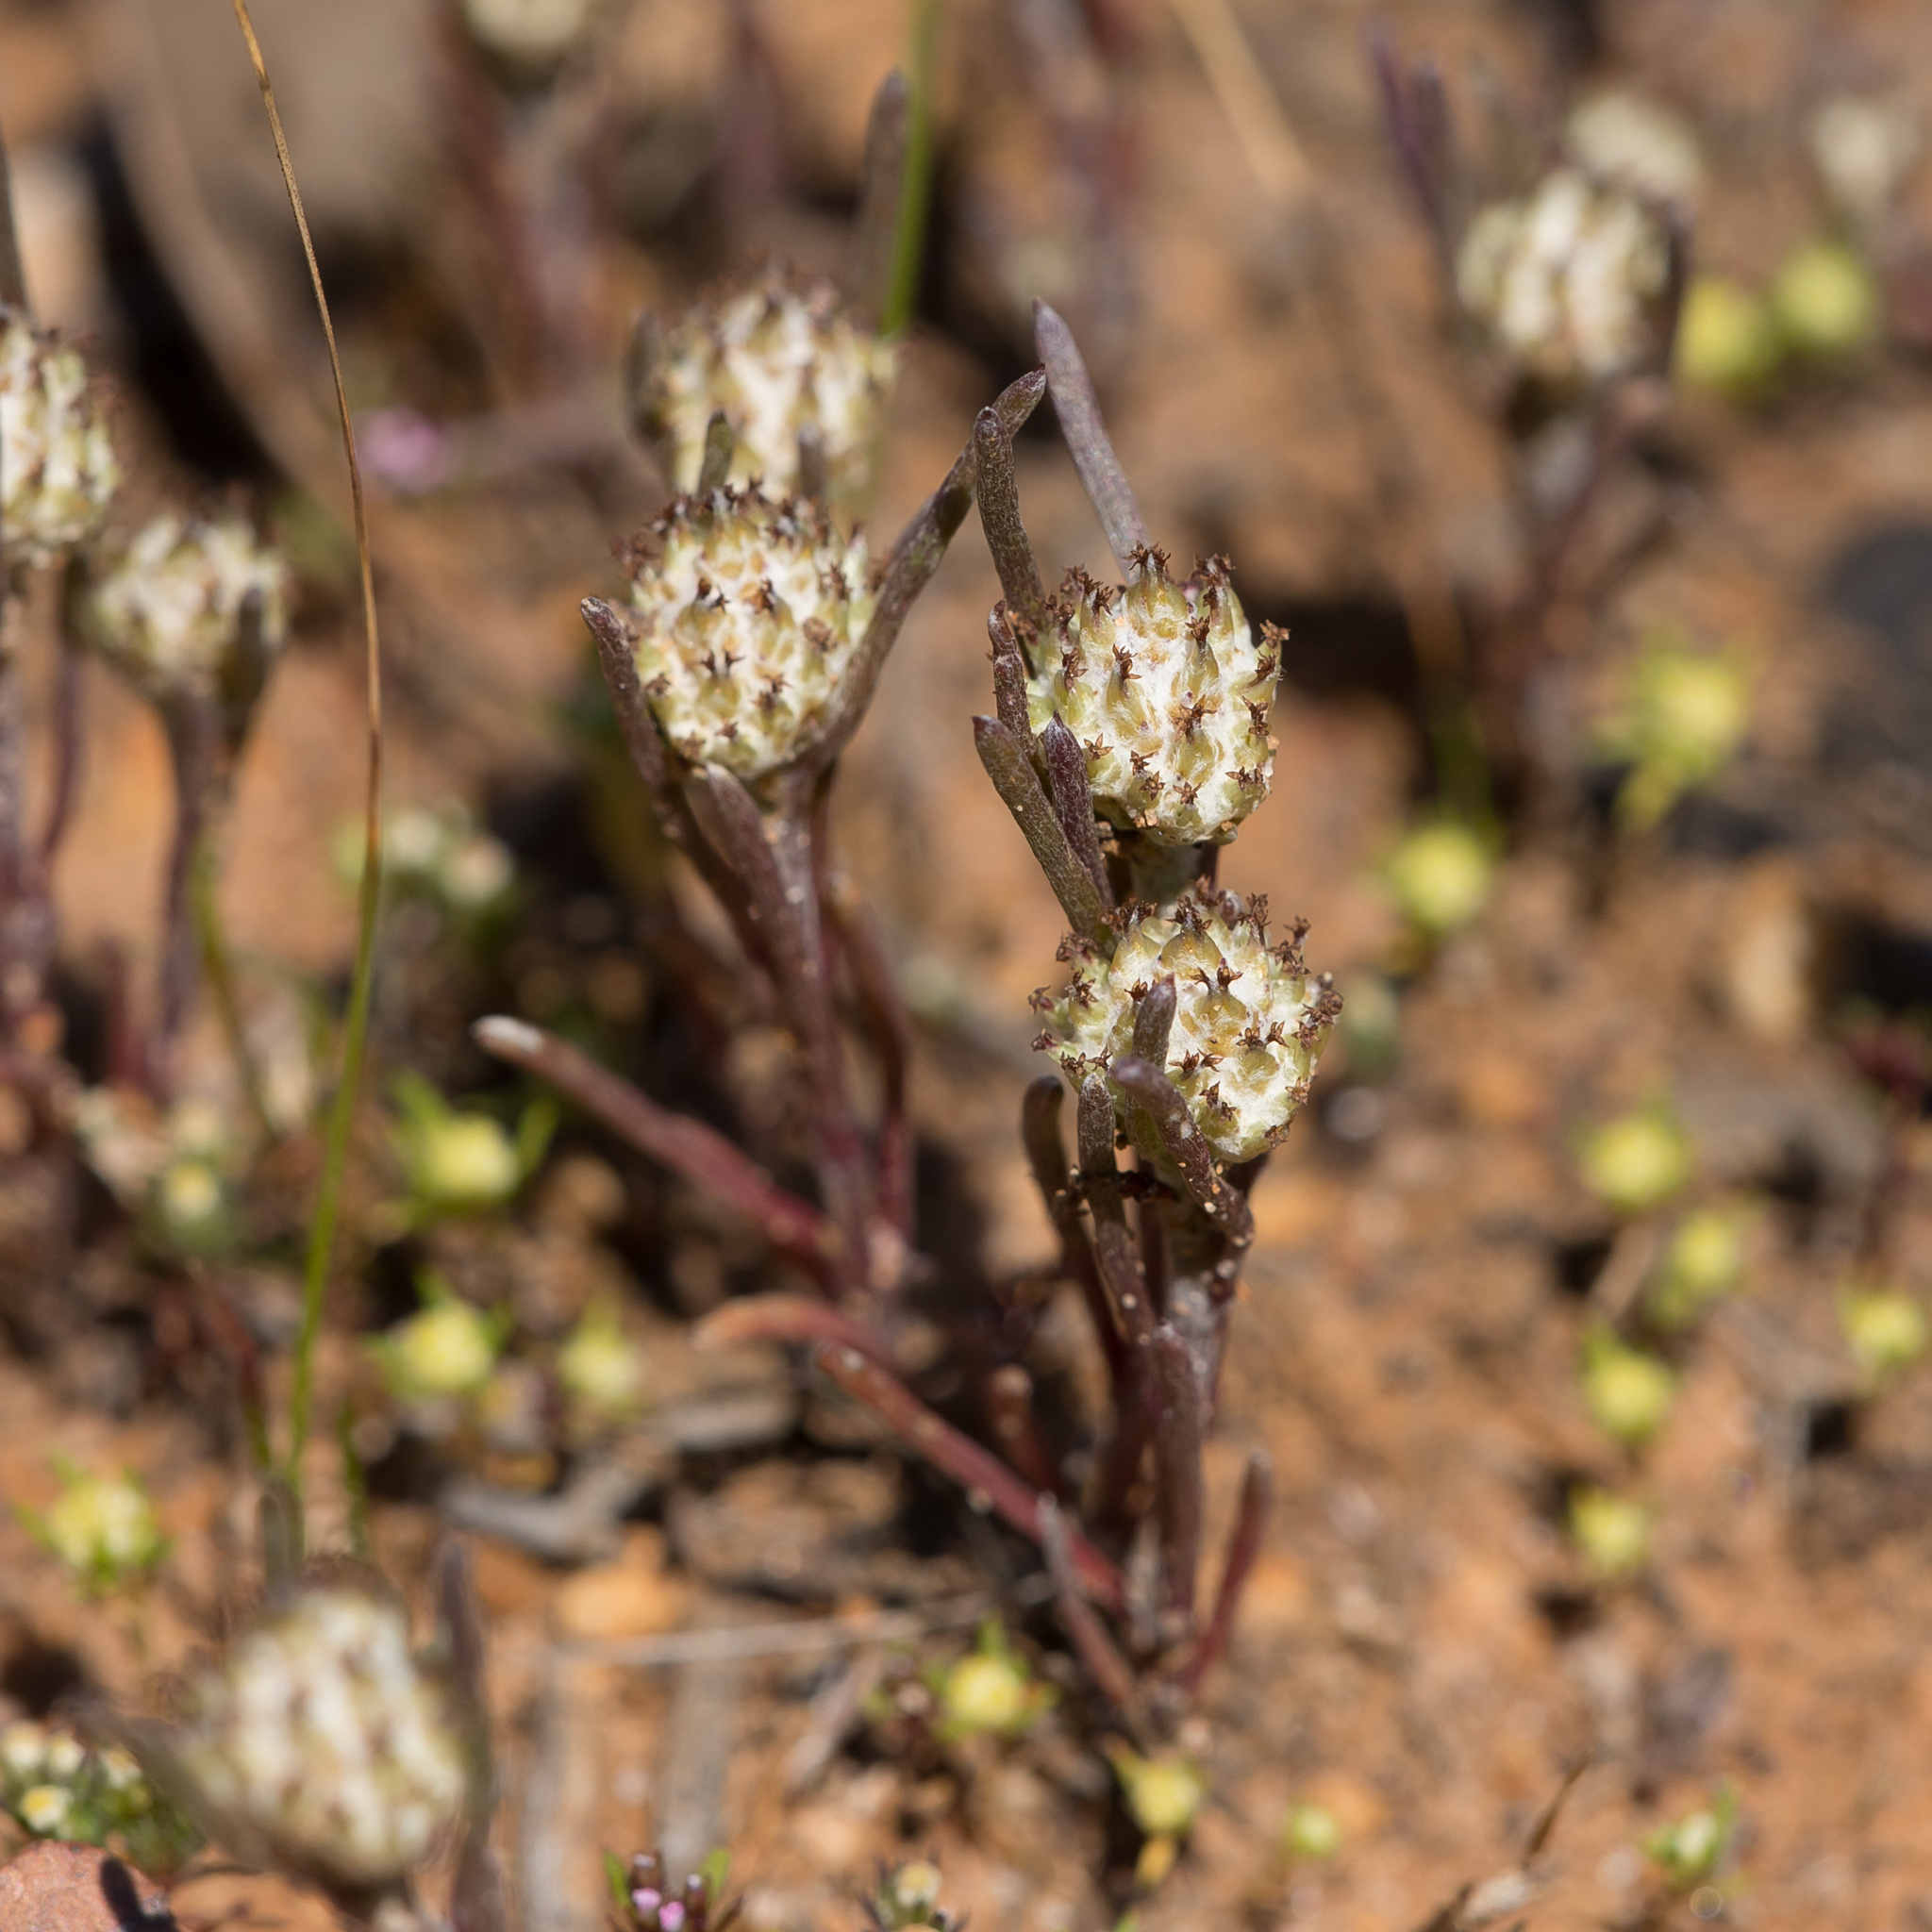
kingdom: Plantae
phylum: Tracheophyta
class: Magnoliopsida
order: Asterales
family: Asteraceae
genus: Blennospora
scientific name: Blennospora drummondii
